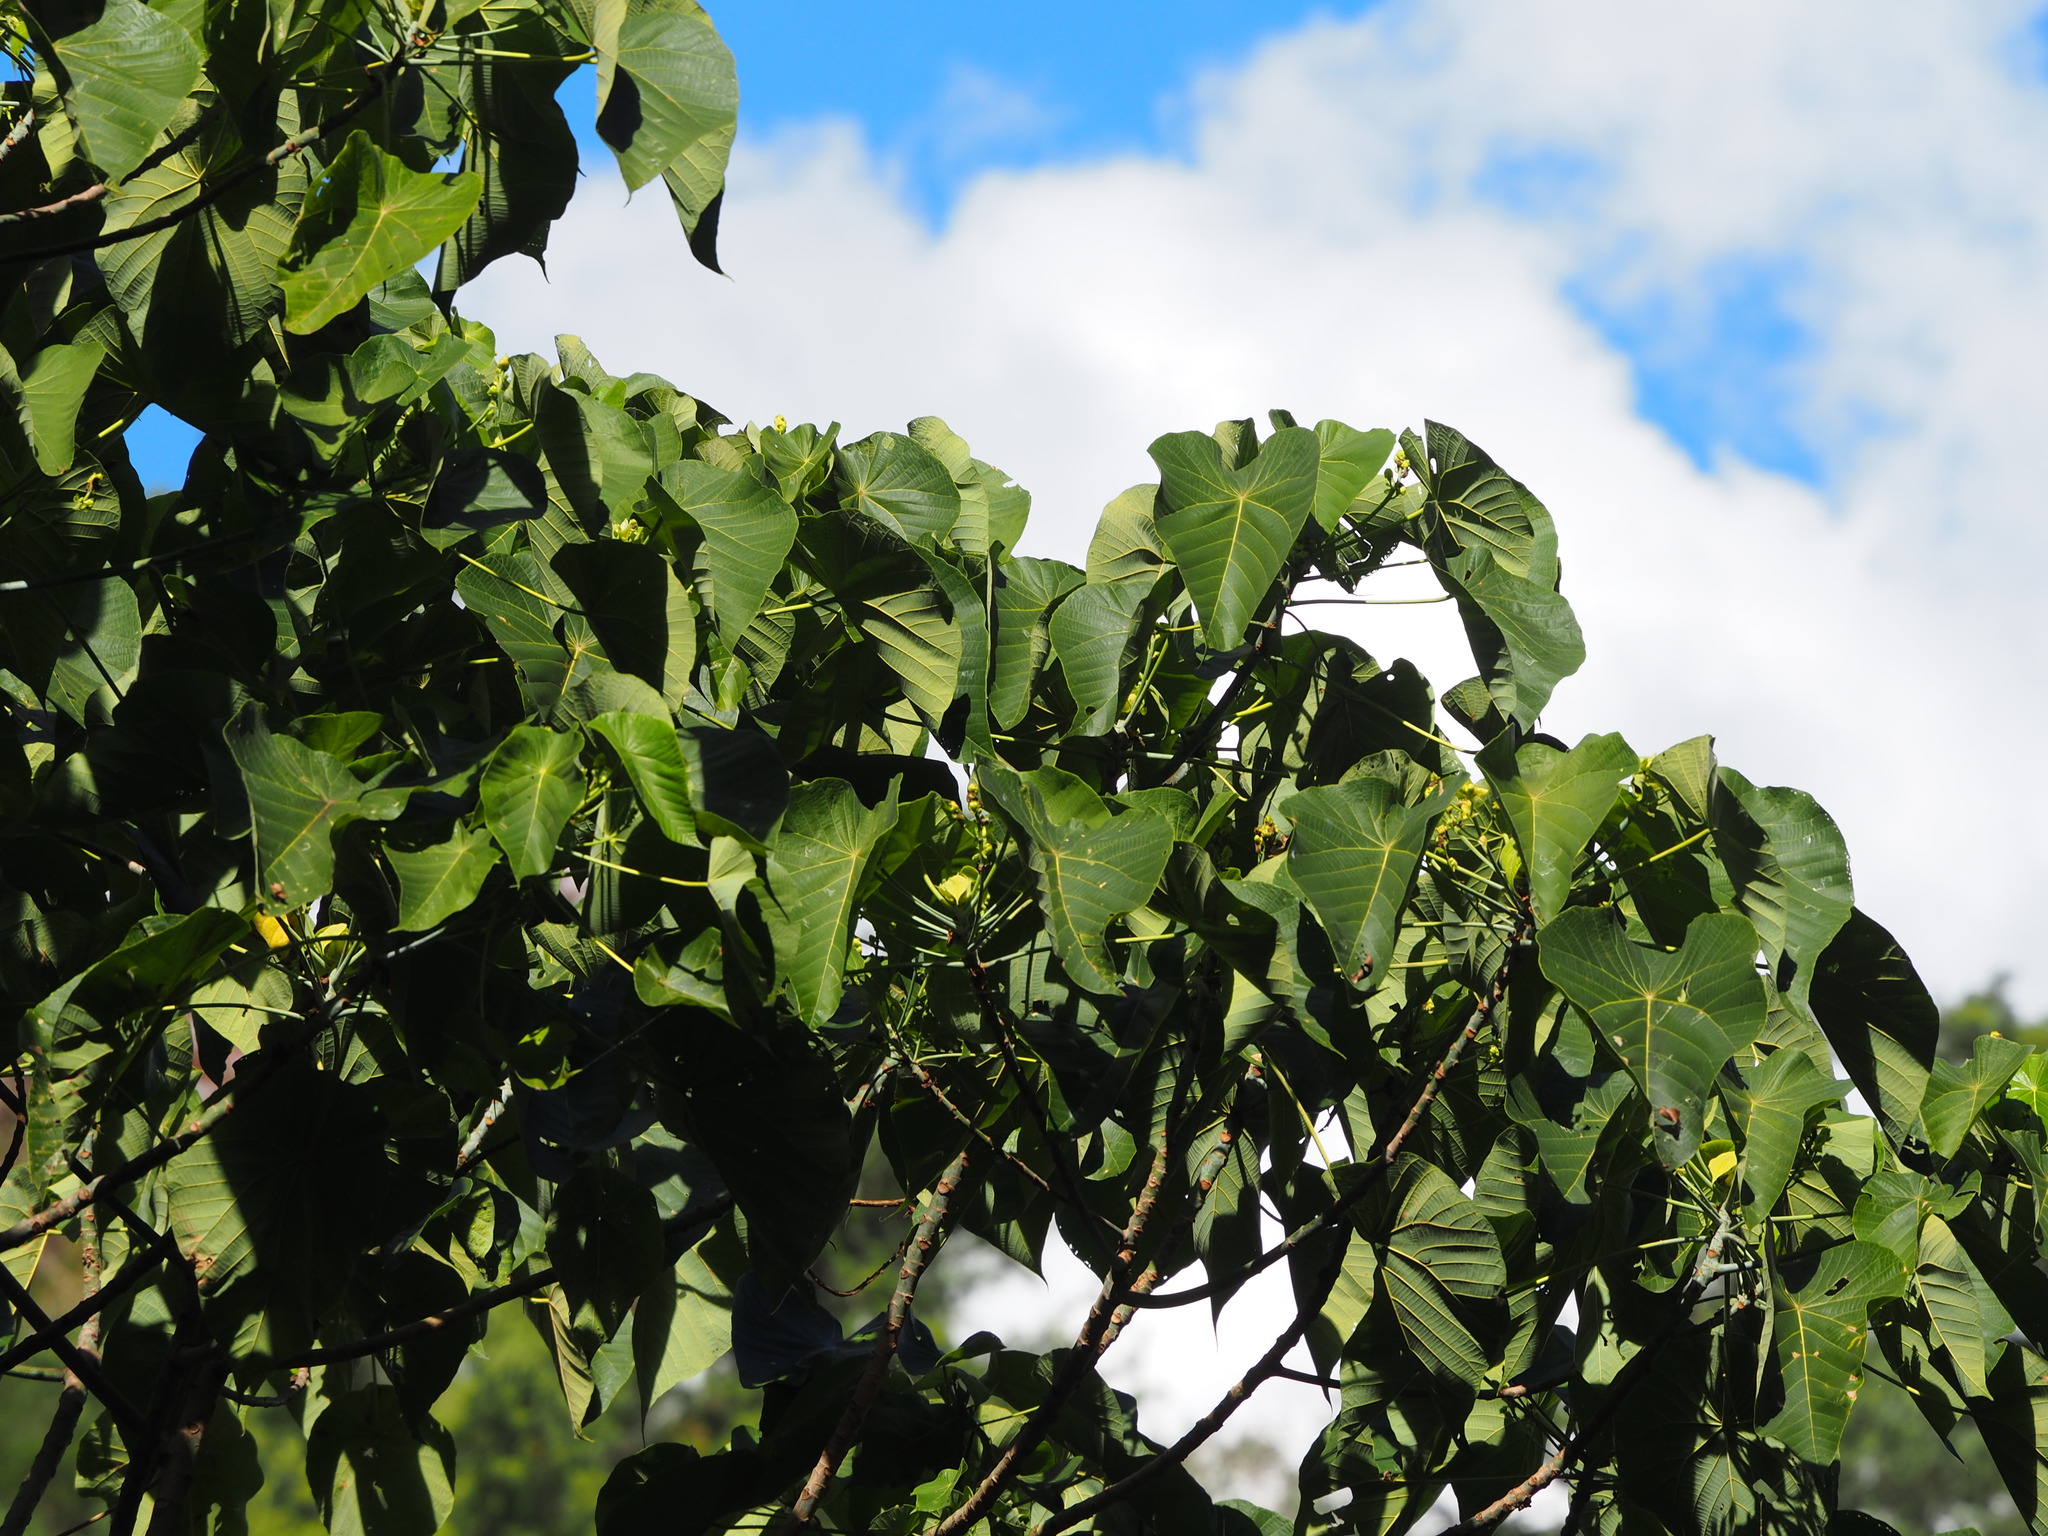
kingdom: Plantae
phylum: Tracheophyta
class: Magnoliopsida
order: Malpighiales
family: Euphorbiaceae
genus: Macaranga
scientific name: Macaranga tanarius
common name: Parasol leaf tree
